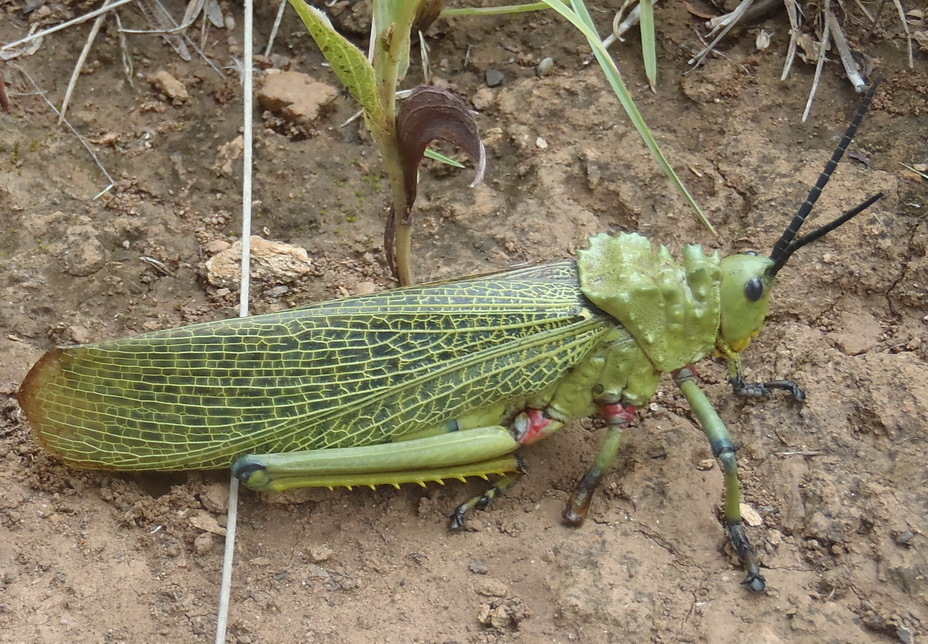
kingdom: Animalia
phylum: Arthropoda
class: Insecta
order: Orthoptera
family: Pyrgomorphidae
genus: Phymateus
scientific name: Phymateus viridipes
